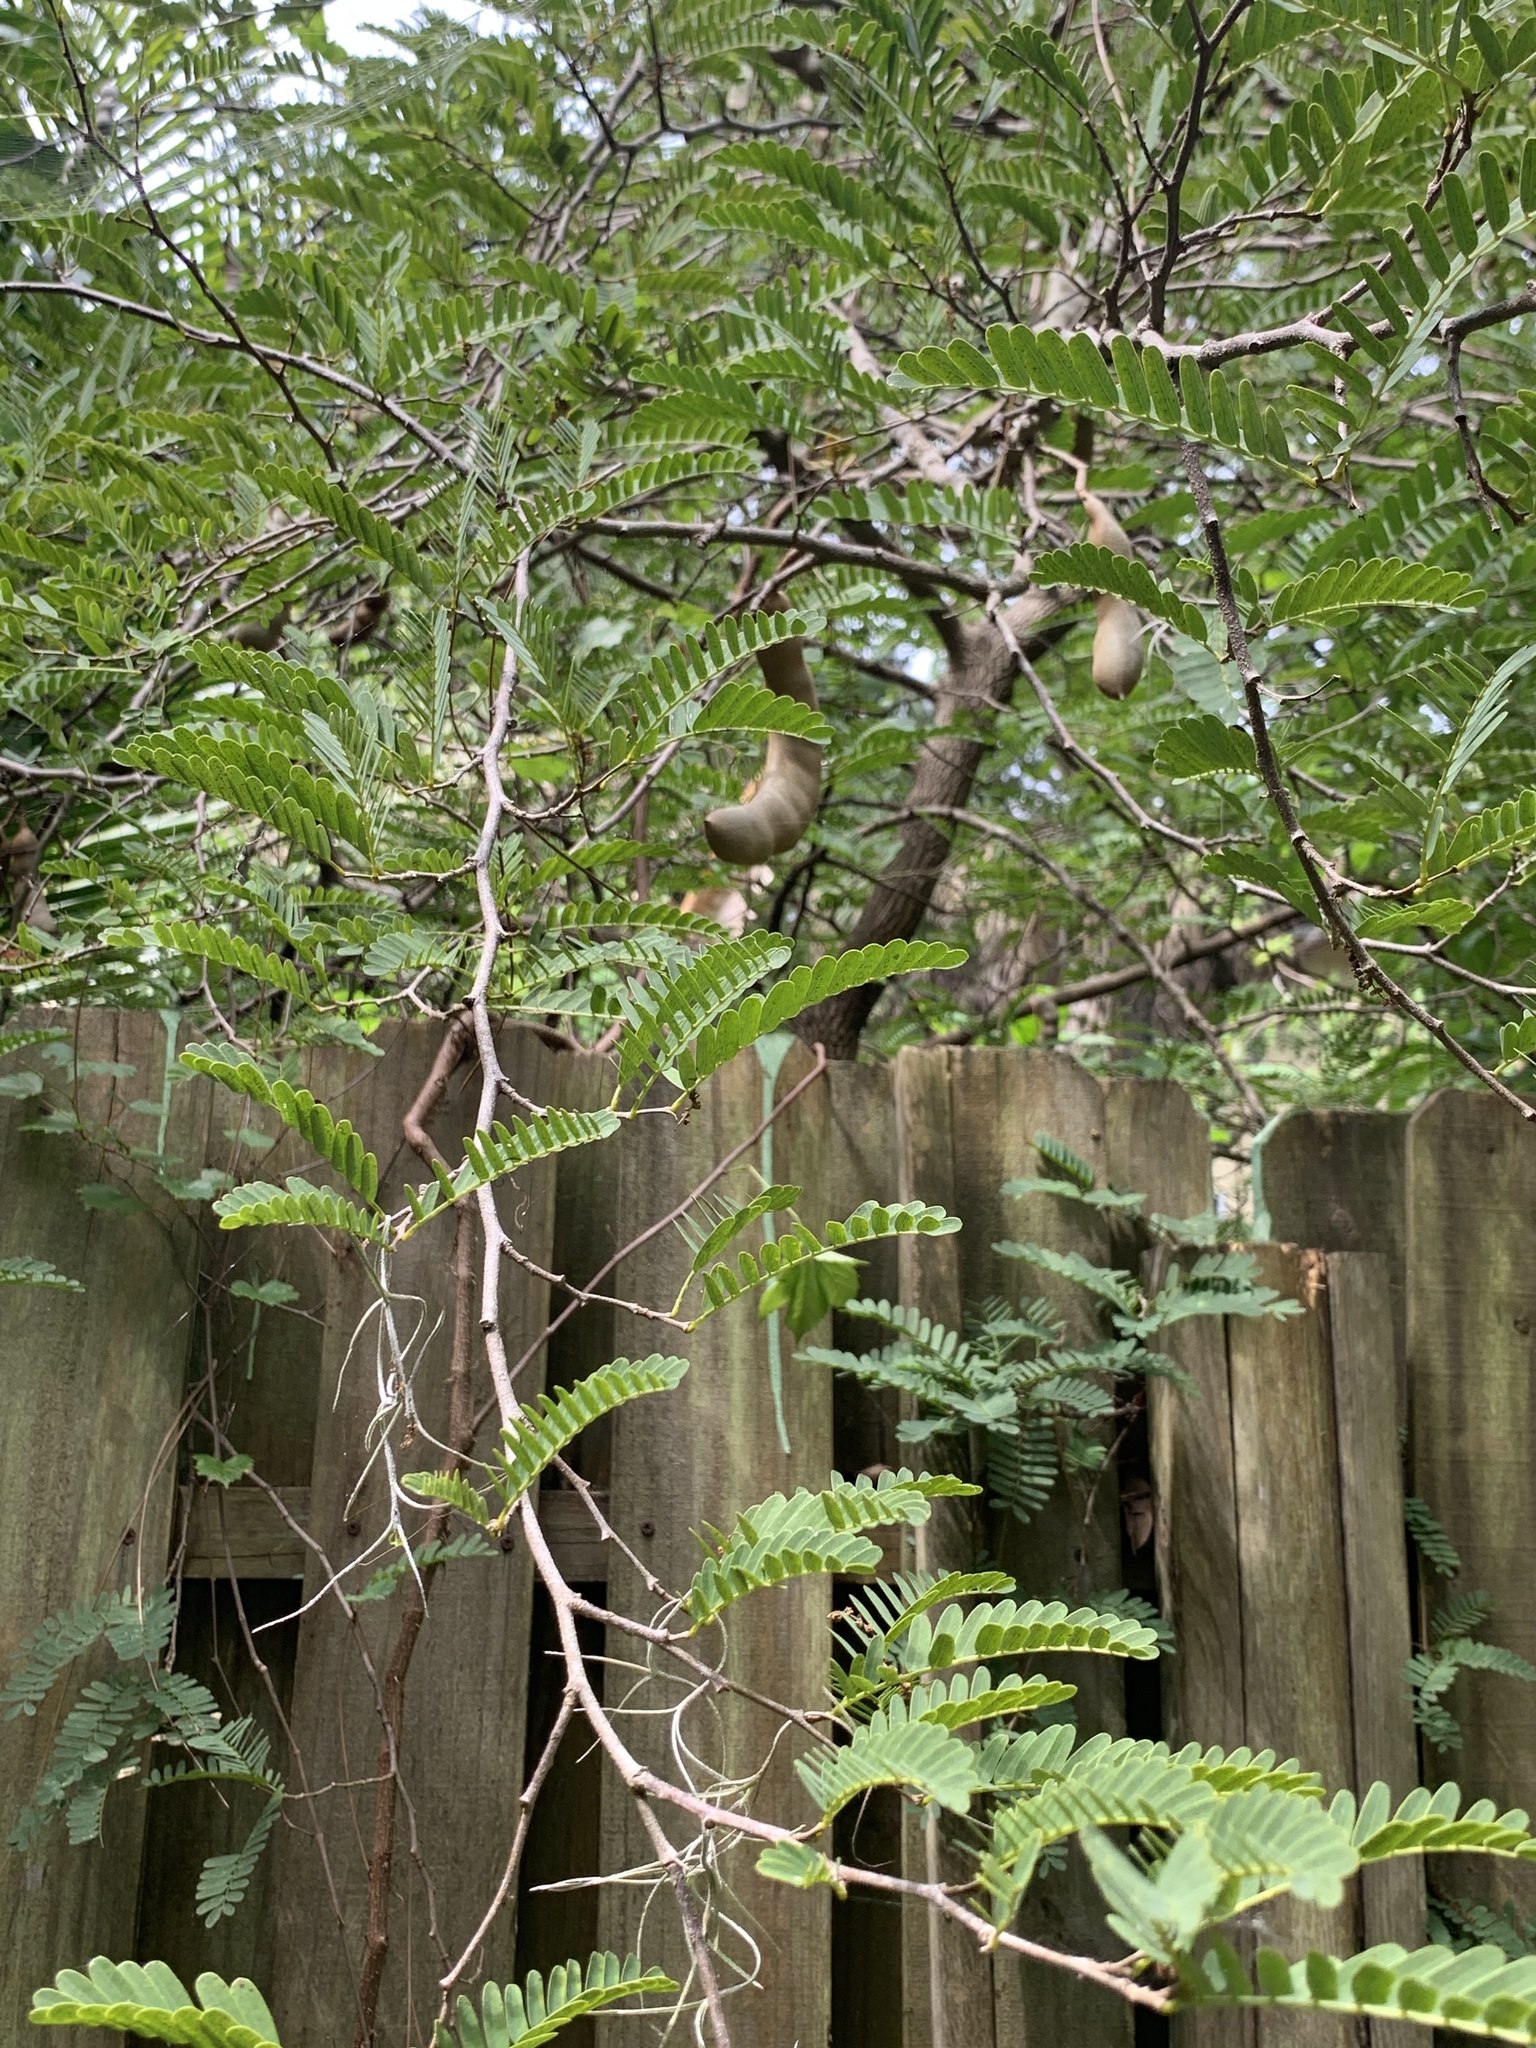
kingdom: Plantae
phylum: Tracheophyta
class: Magnoliopsida
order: Fabales
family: Fabaceae
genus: Tamarindus
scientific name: Tamarindus indica
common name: Tamarind
